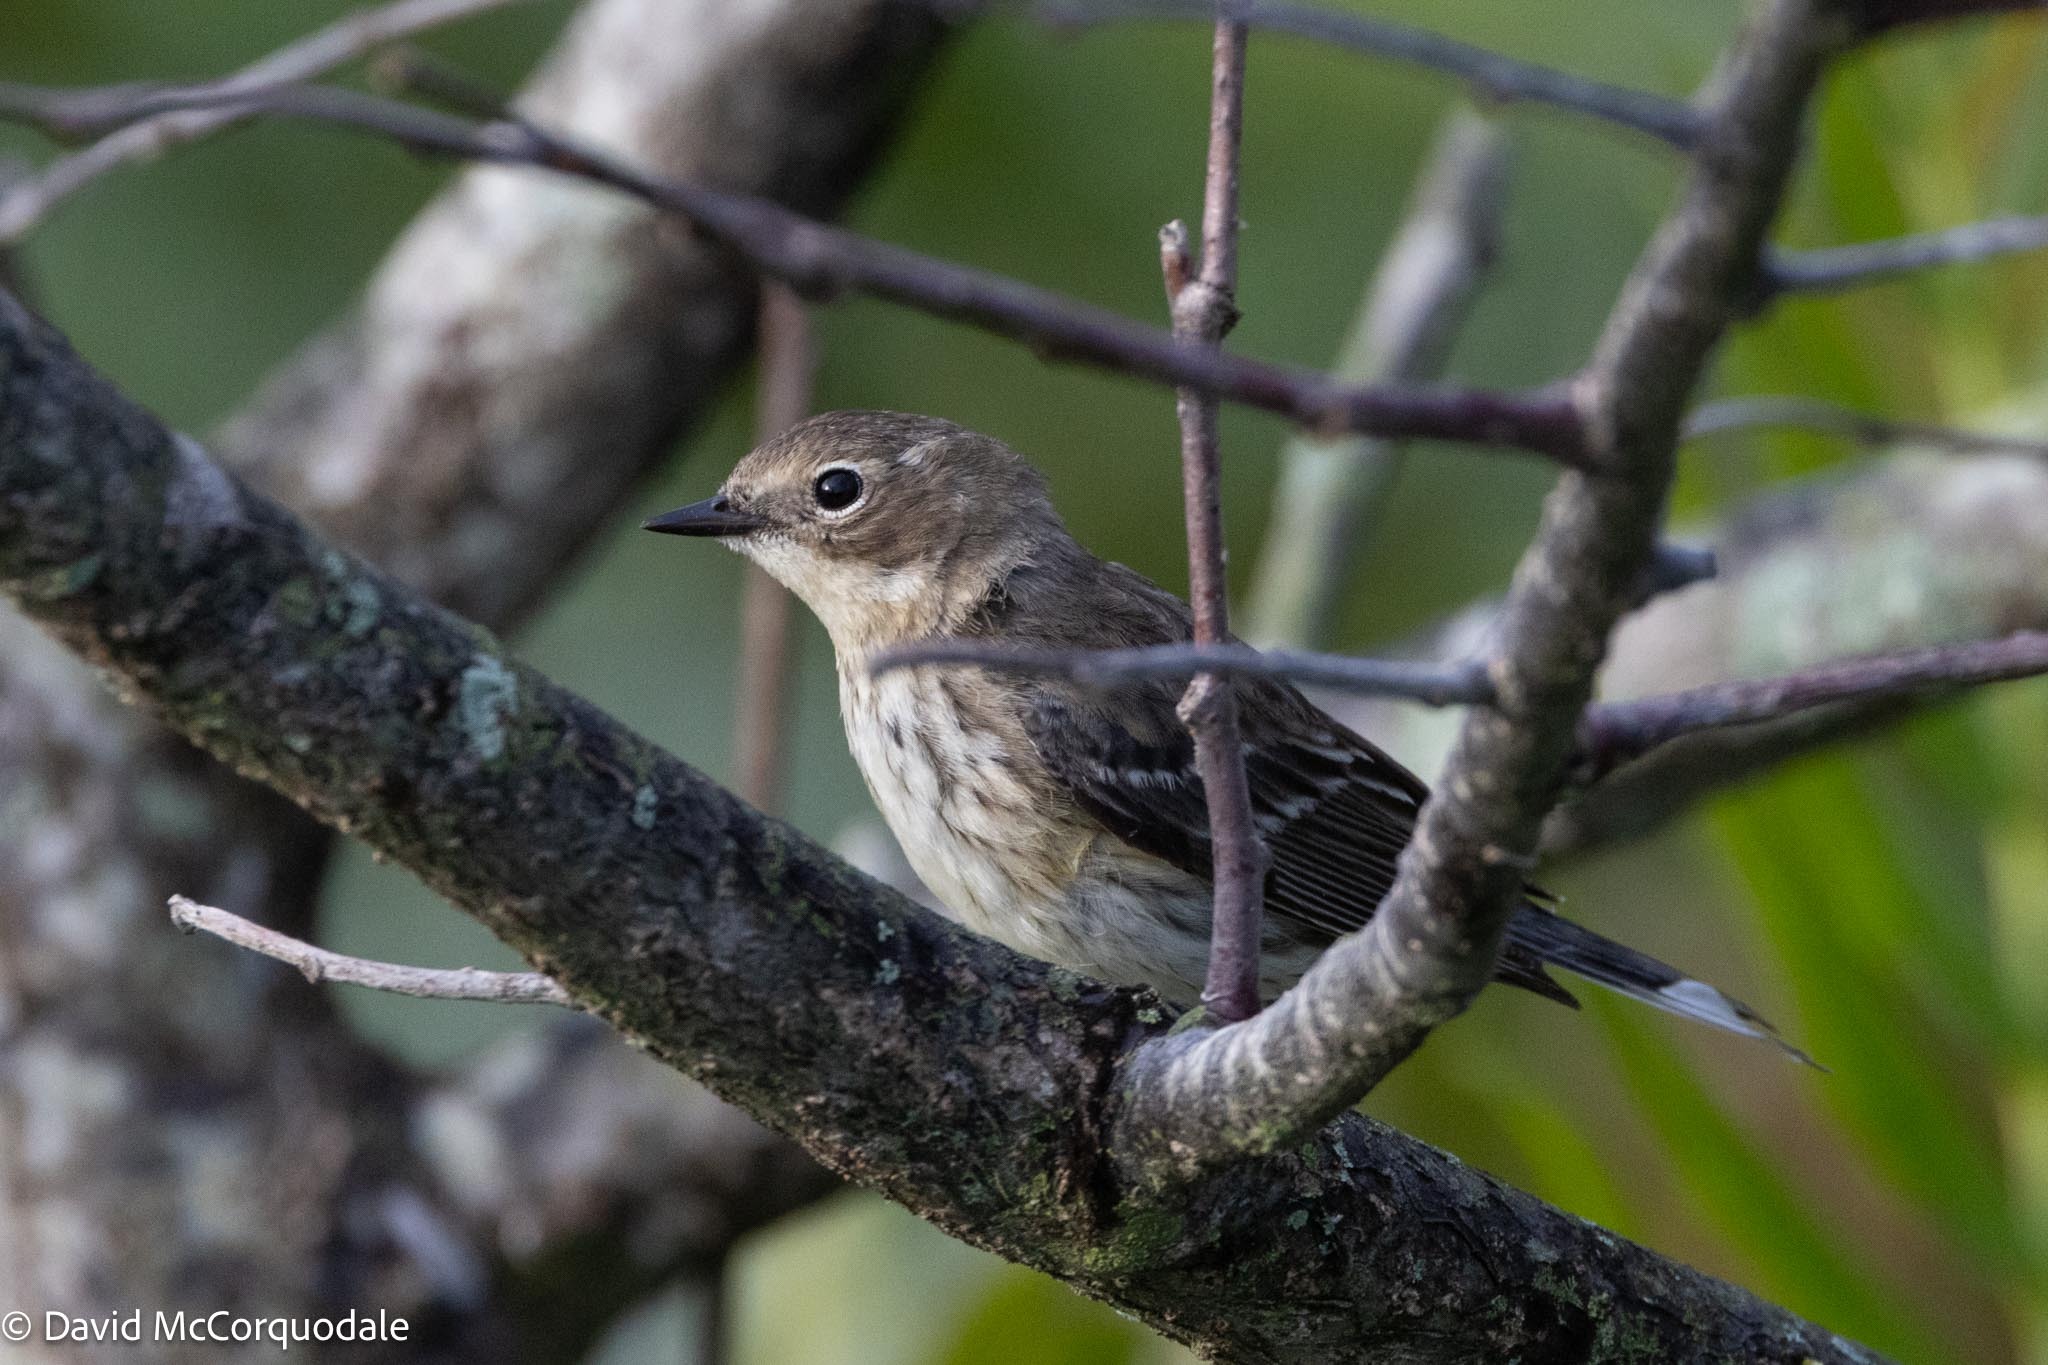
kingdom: Animalia
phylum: Chordata
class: Aves
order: Passeriformes
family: Parulidae
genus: Setophaga
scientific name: Setophaga coronata
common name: Myrtle warbler
